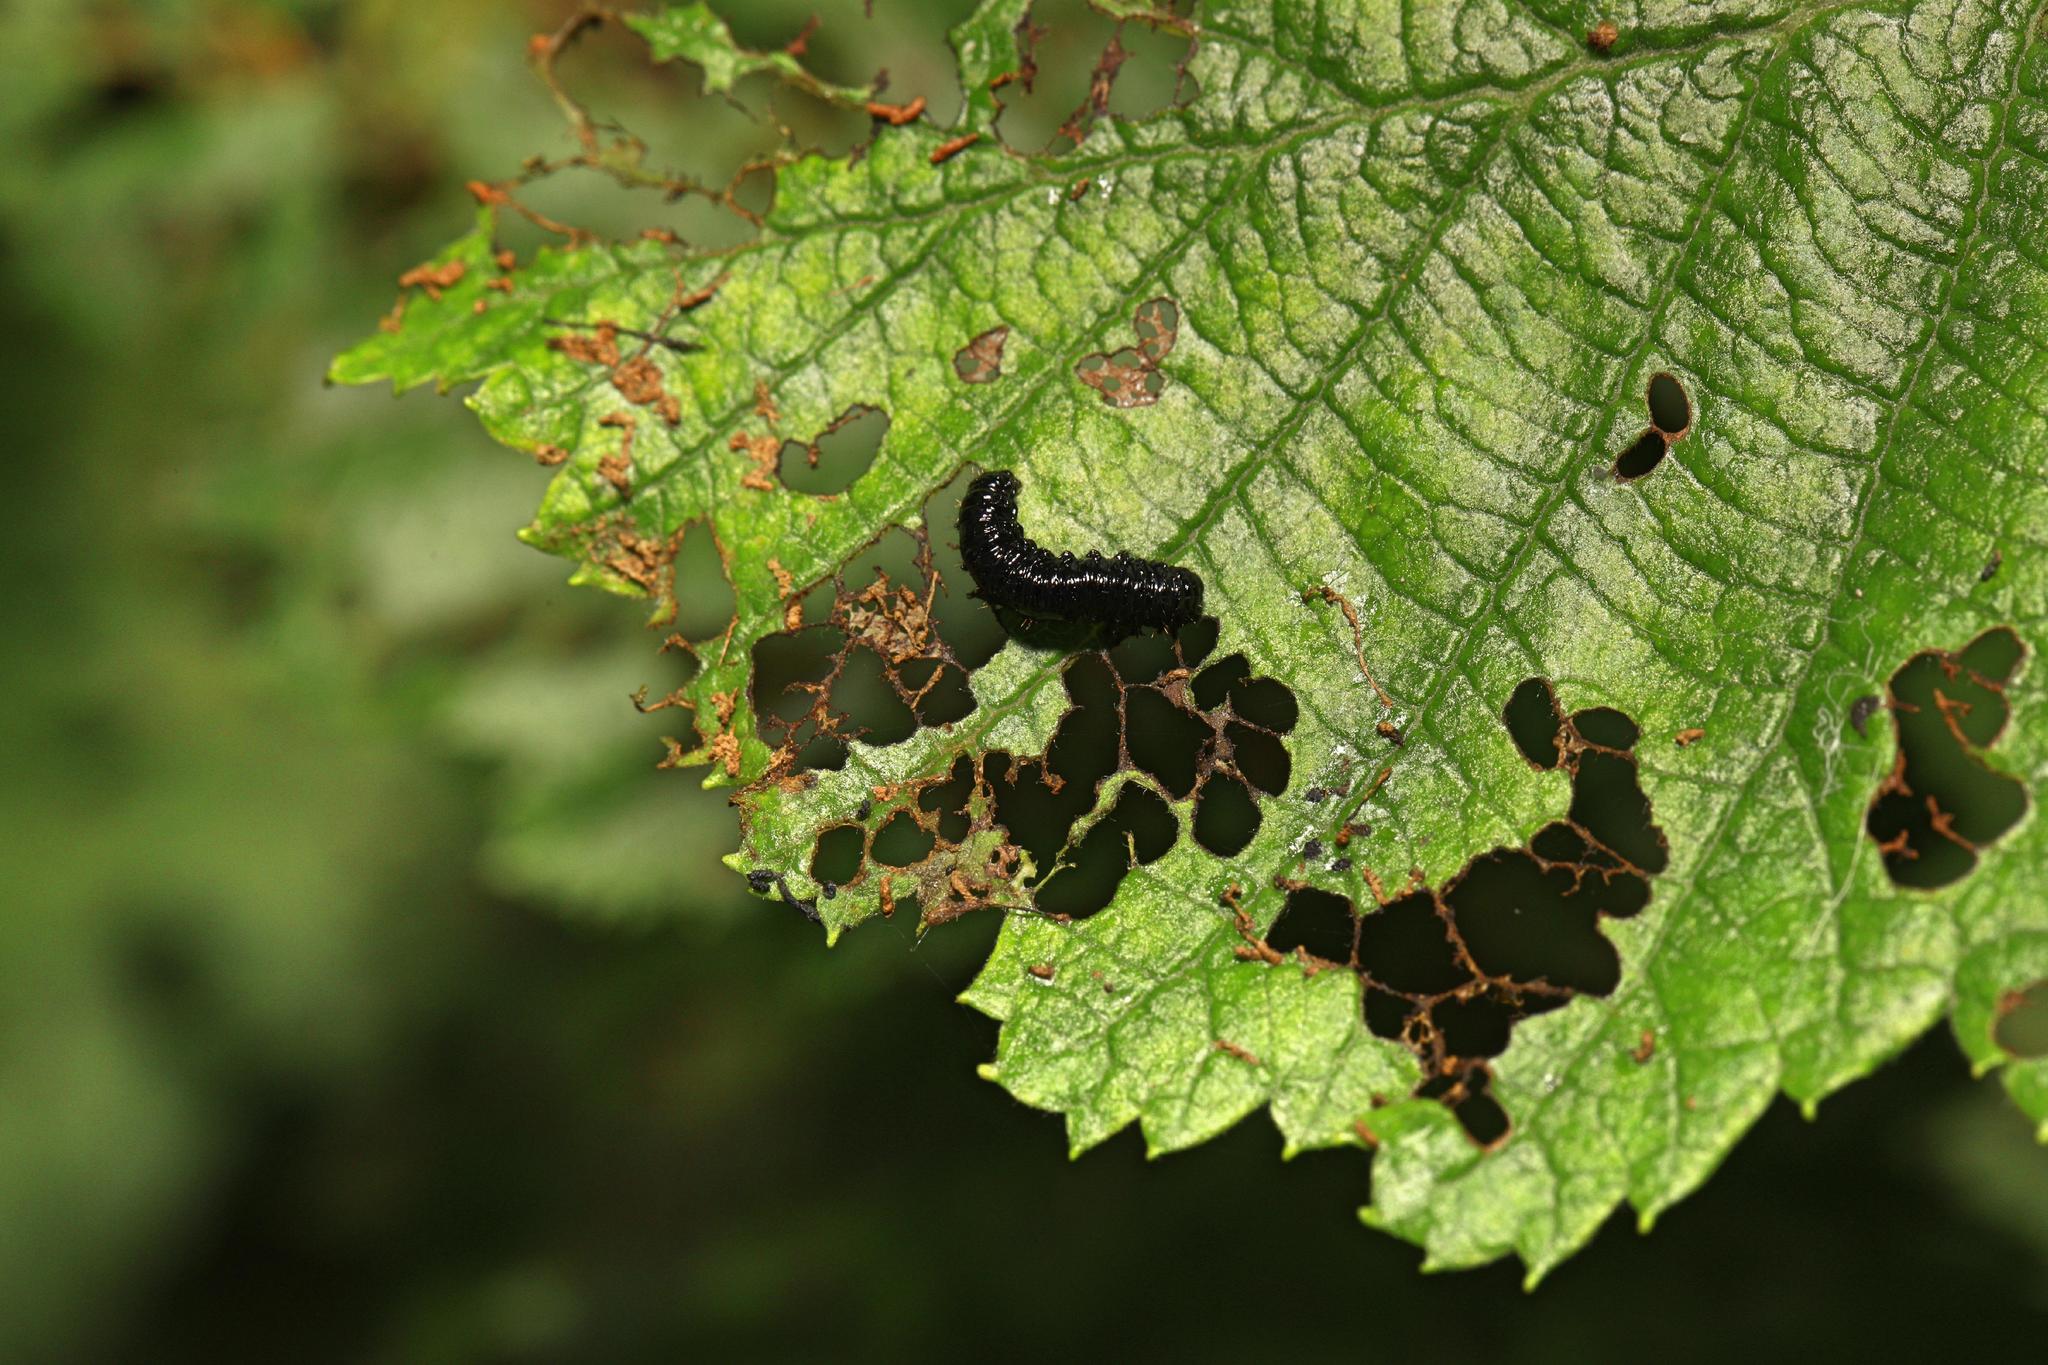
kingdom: Animalia
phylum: Arthropoda
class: Insecta
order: Coleoptera
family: Chrysomelidae
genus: Agelastica
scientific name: Agelastica alni
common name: Alder leaf beetle
